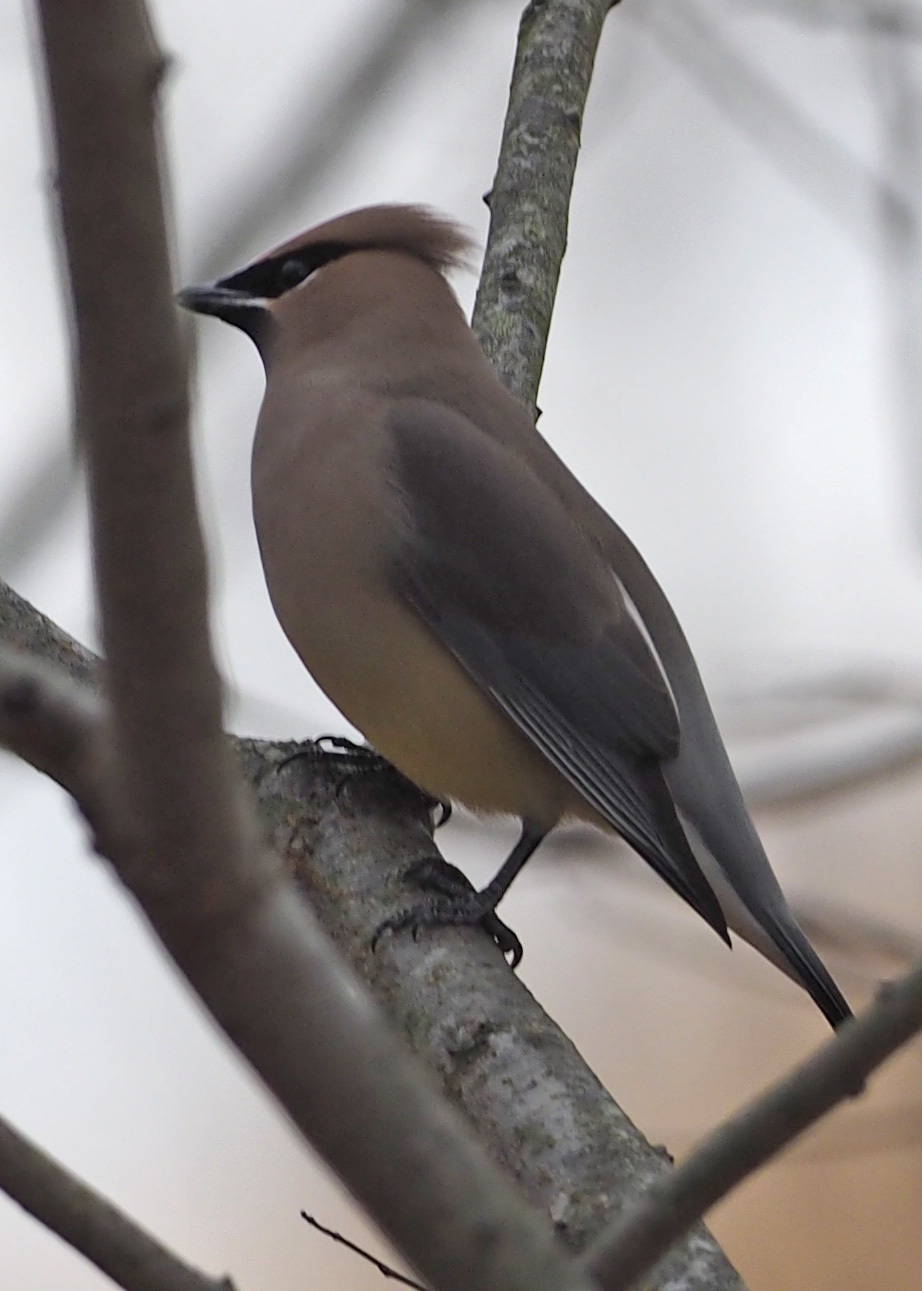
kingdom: Animalia
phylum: Chordata
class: Aves
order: Passeriformes
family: Bombycillidae
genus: Bombycilla
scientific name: Bombycilla cedrorum
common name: Cedar waxwing
